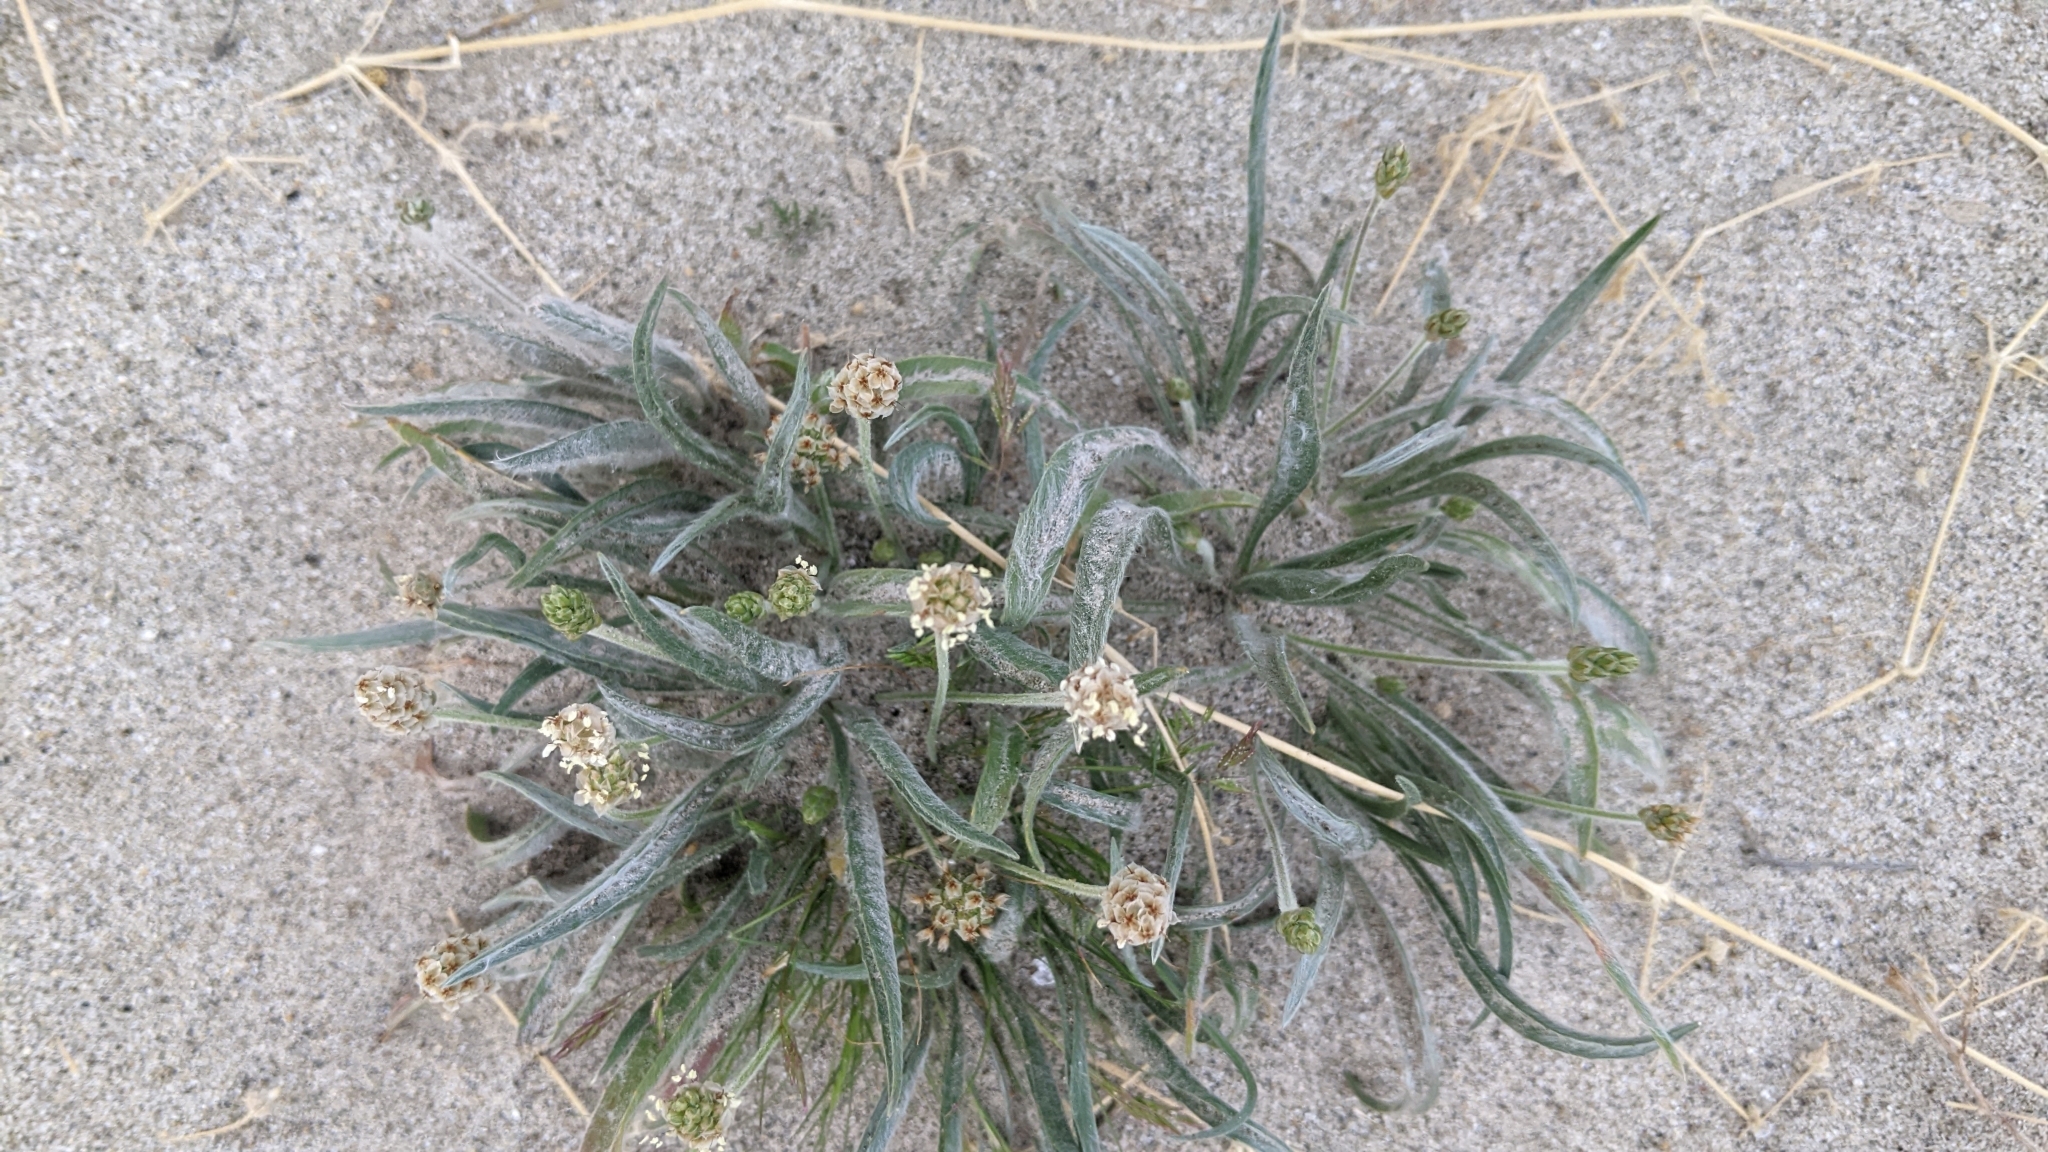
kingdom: Plantae
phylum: Tracheophyta
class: Magnoliopsida
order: Lamiales
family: Plantaginaceae
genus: Plantago
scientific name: Plantago ovata
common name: Blond plantain
